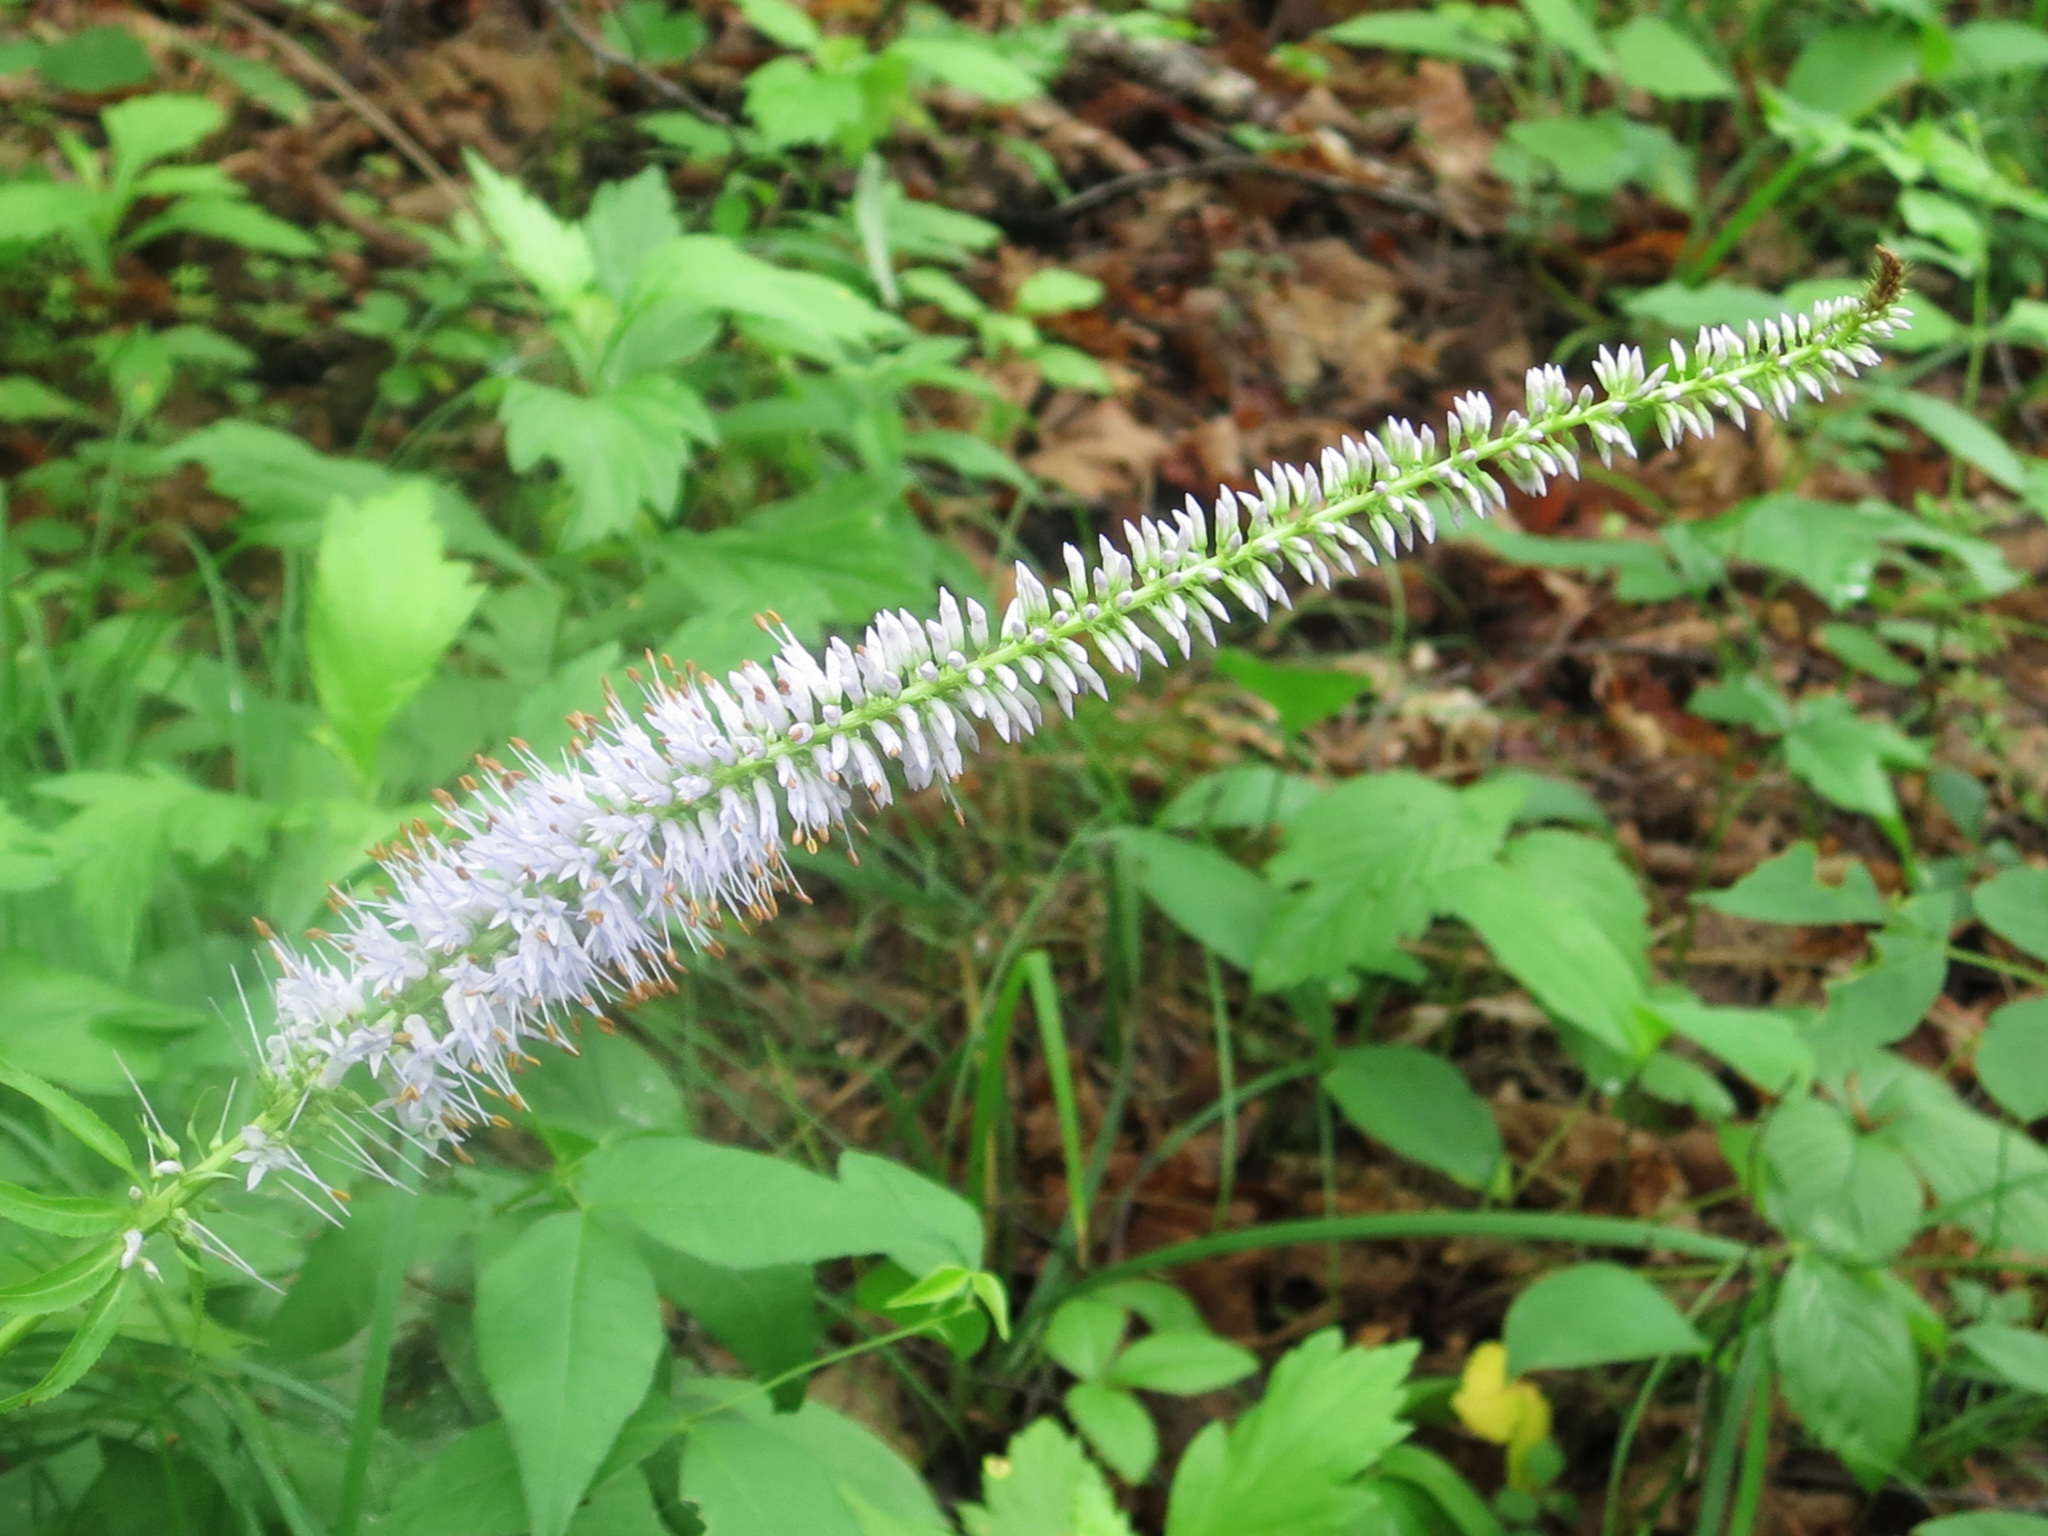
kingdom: Plantae
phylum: Tracheophyta
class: Magnoliopsida
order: Lamiales
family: Plantaginaceae
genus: Veronicastrum
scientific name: Veronicastrum sibiricum
